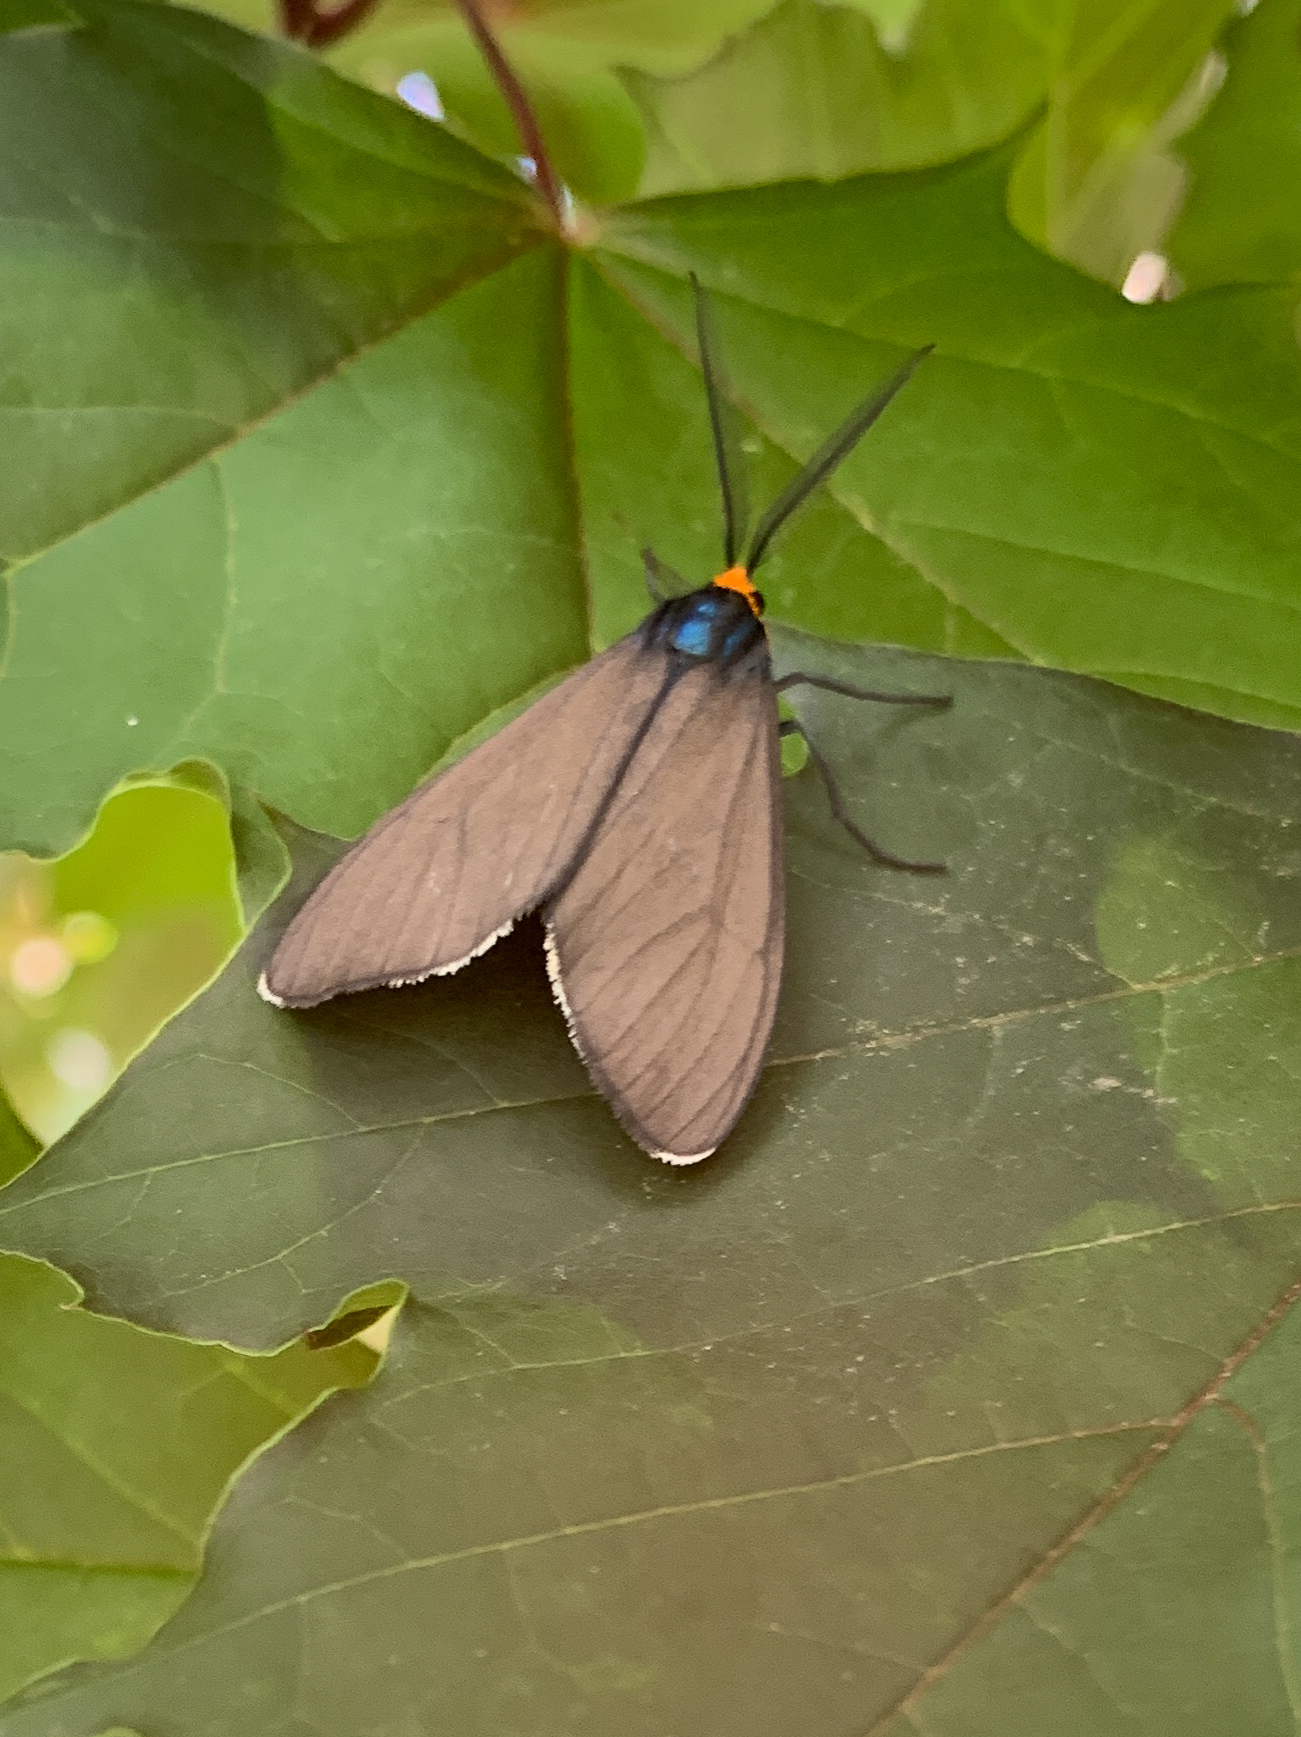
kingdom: Animalia
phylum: Arthropoda
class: Insecta
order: Lepidoptera
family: Erebidae
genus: Ctenucha
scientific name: Ctenucha virginica
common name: Virginia ctenucha moth
